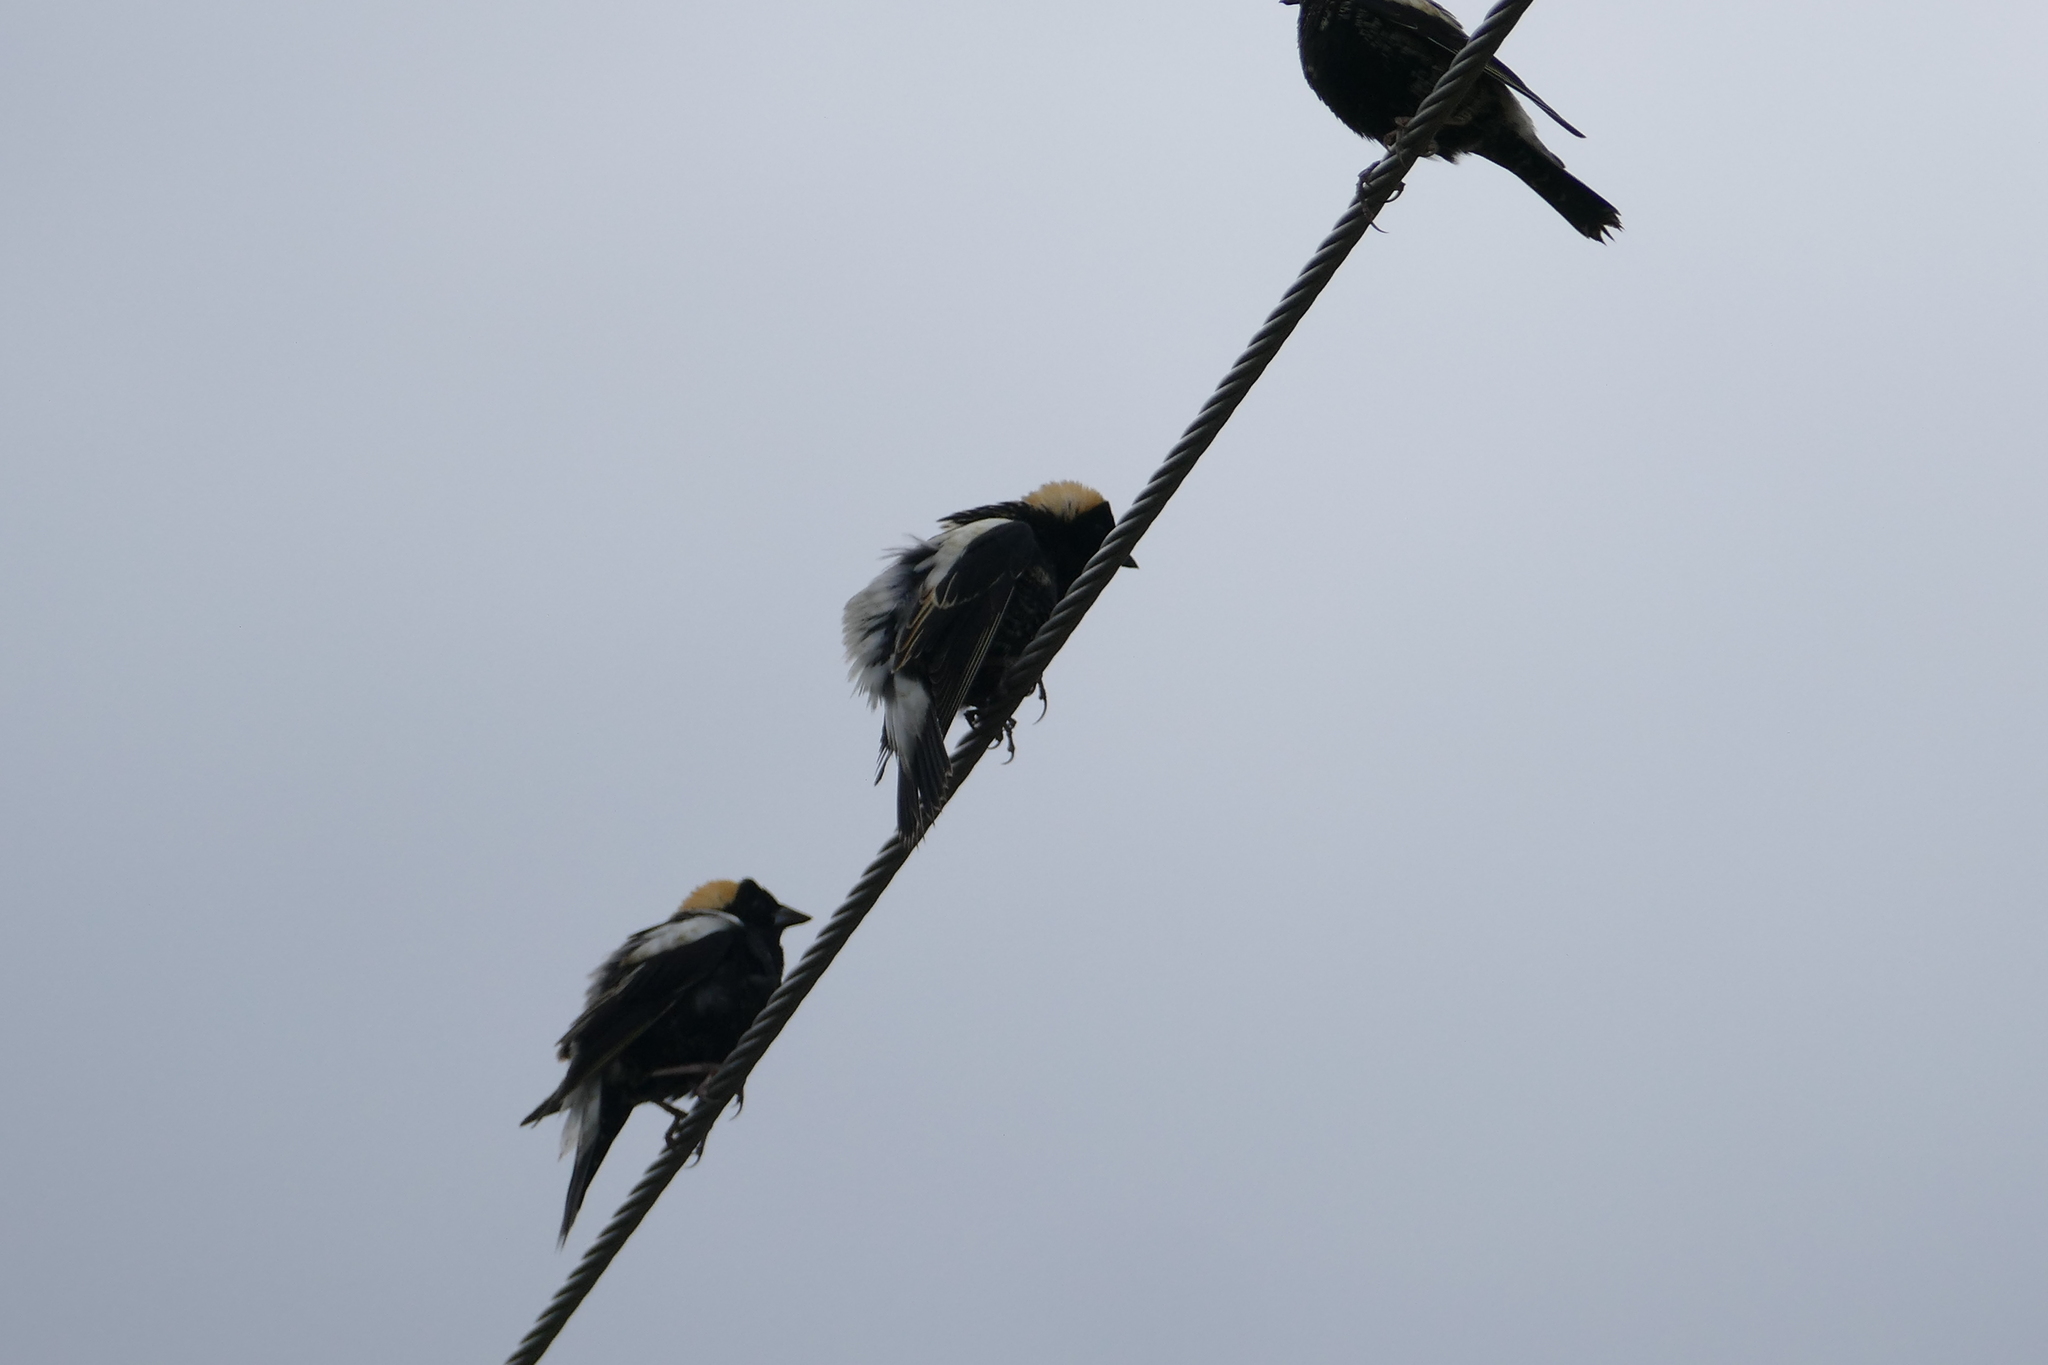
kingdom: Animalia
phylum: Chordata
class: Aves
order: Passeriformes
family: Icteridae
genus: Dolichonyx
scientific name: Dolichonyx oryzivorus
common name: Bobolink
